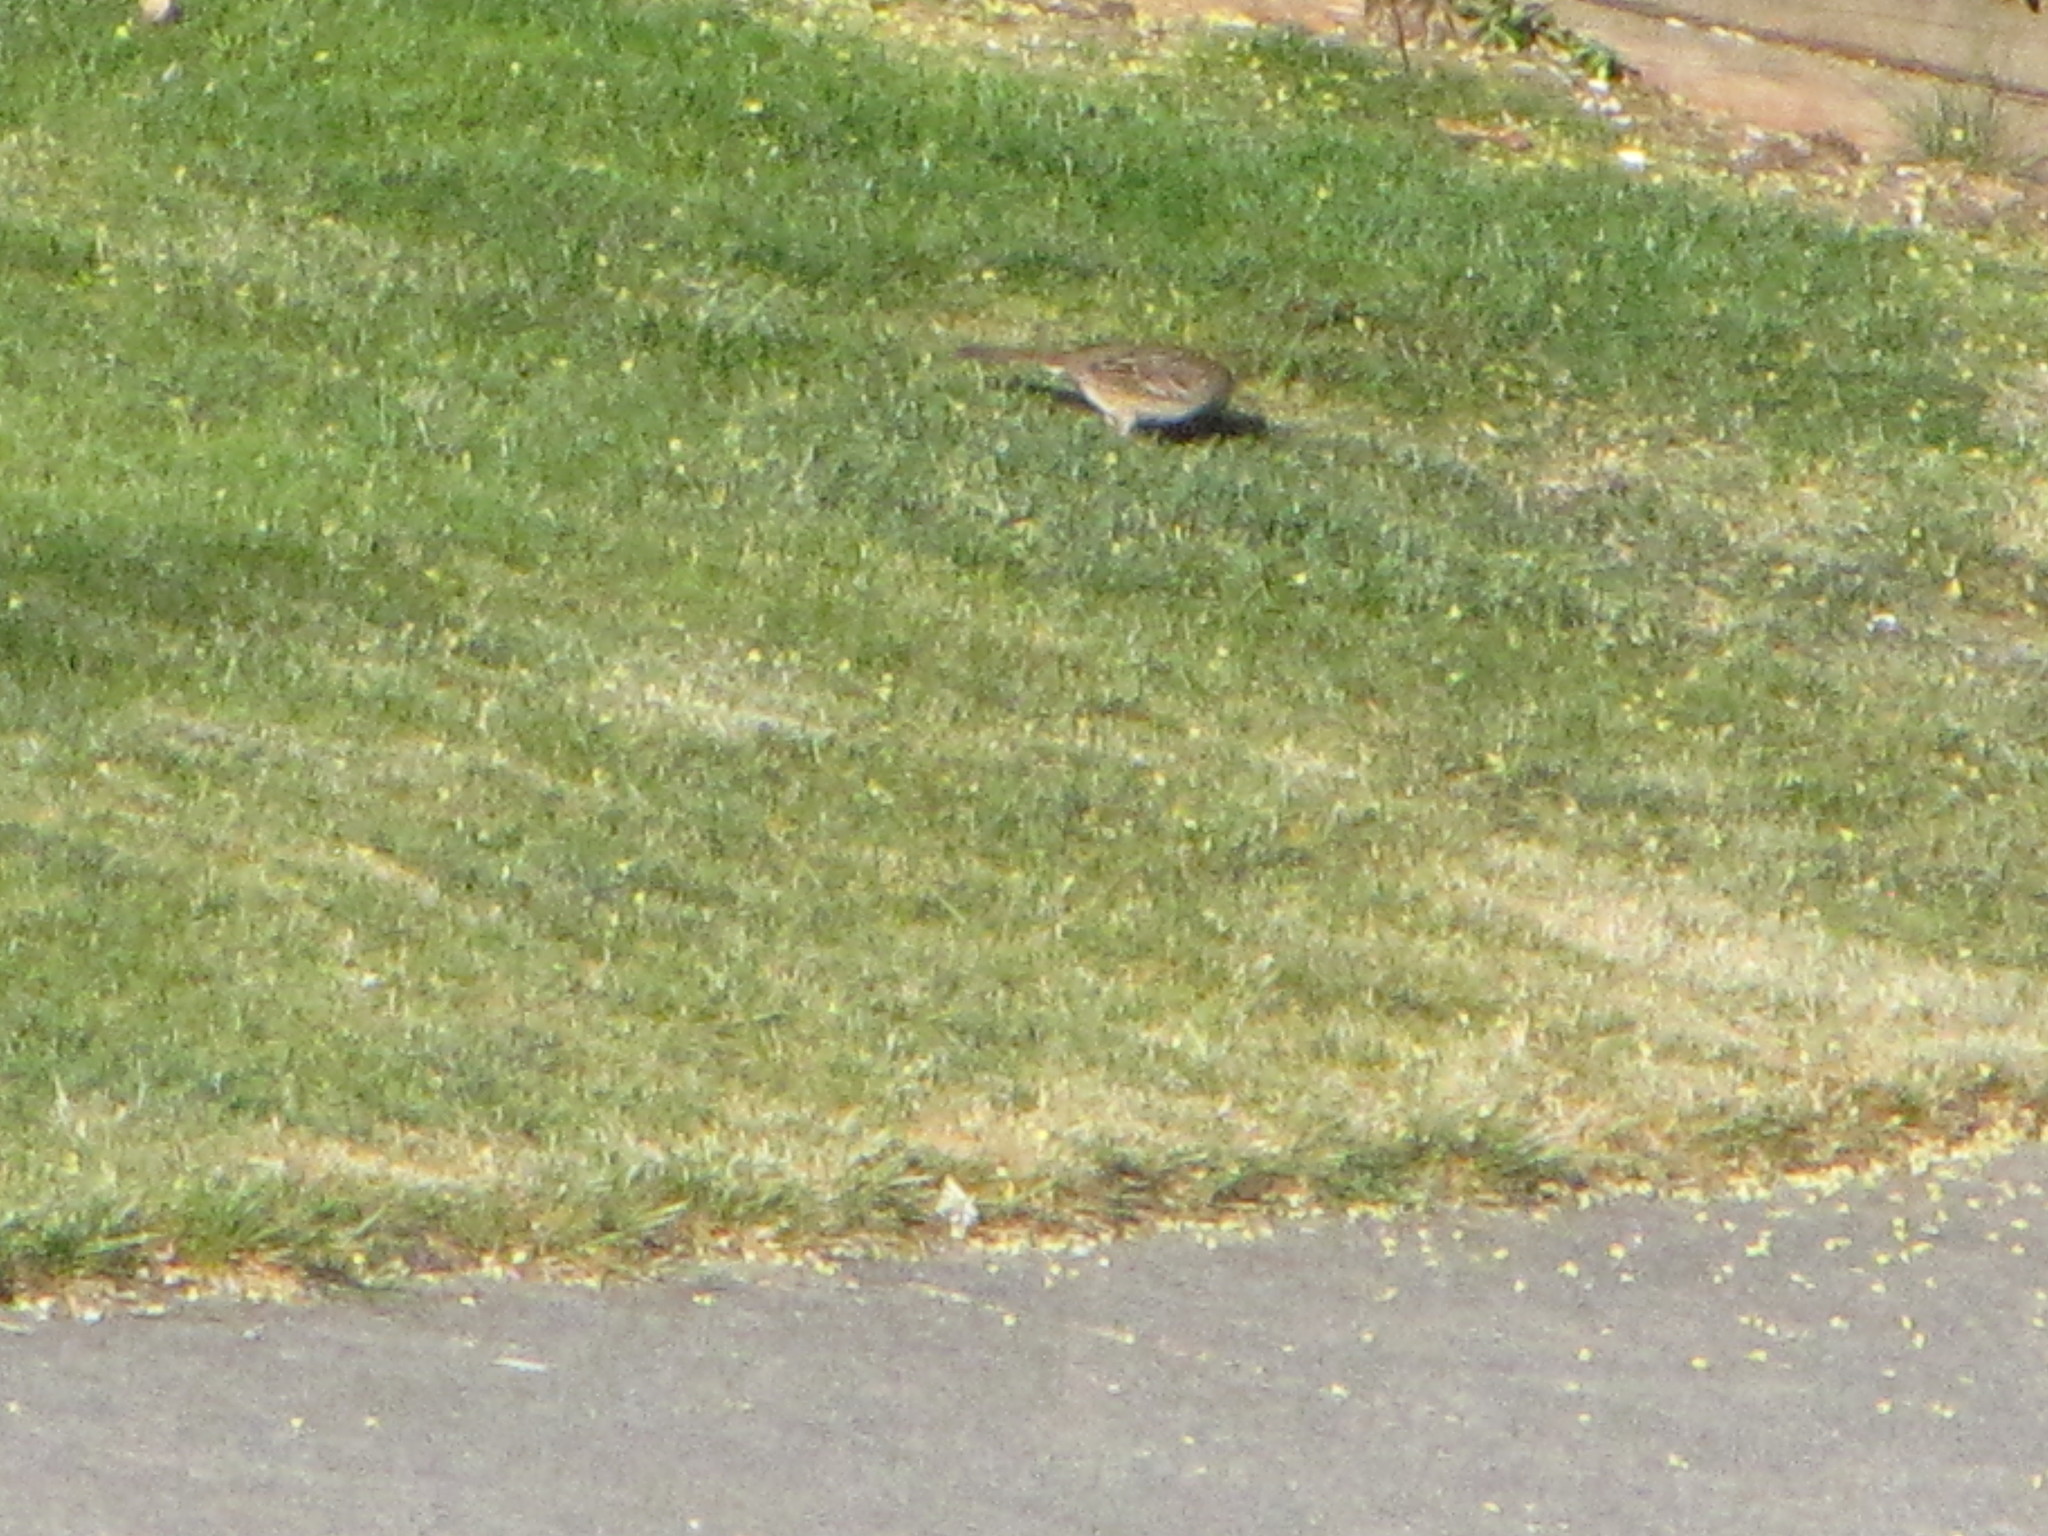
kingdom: Animalia
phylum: Chordata
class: Aves
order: Passeriformes
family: Passerellidae
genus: Zonotrichia
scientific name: Zonotrichia atricapilla
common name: Golden-crowned sparrow
